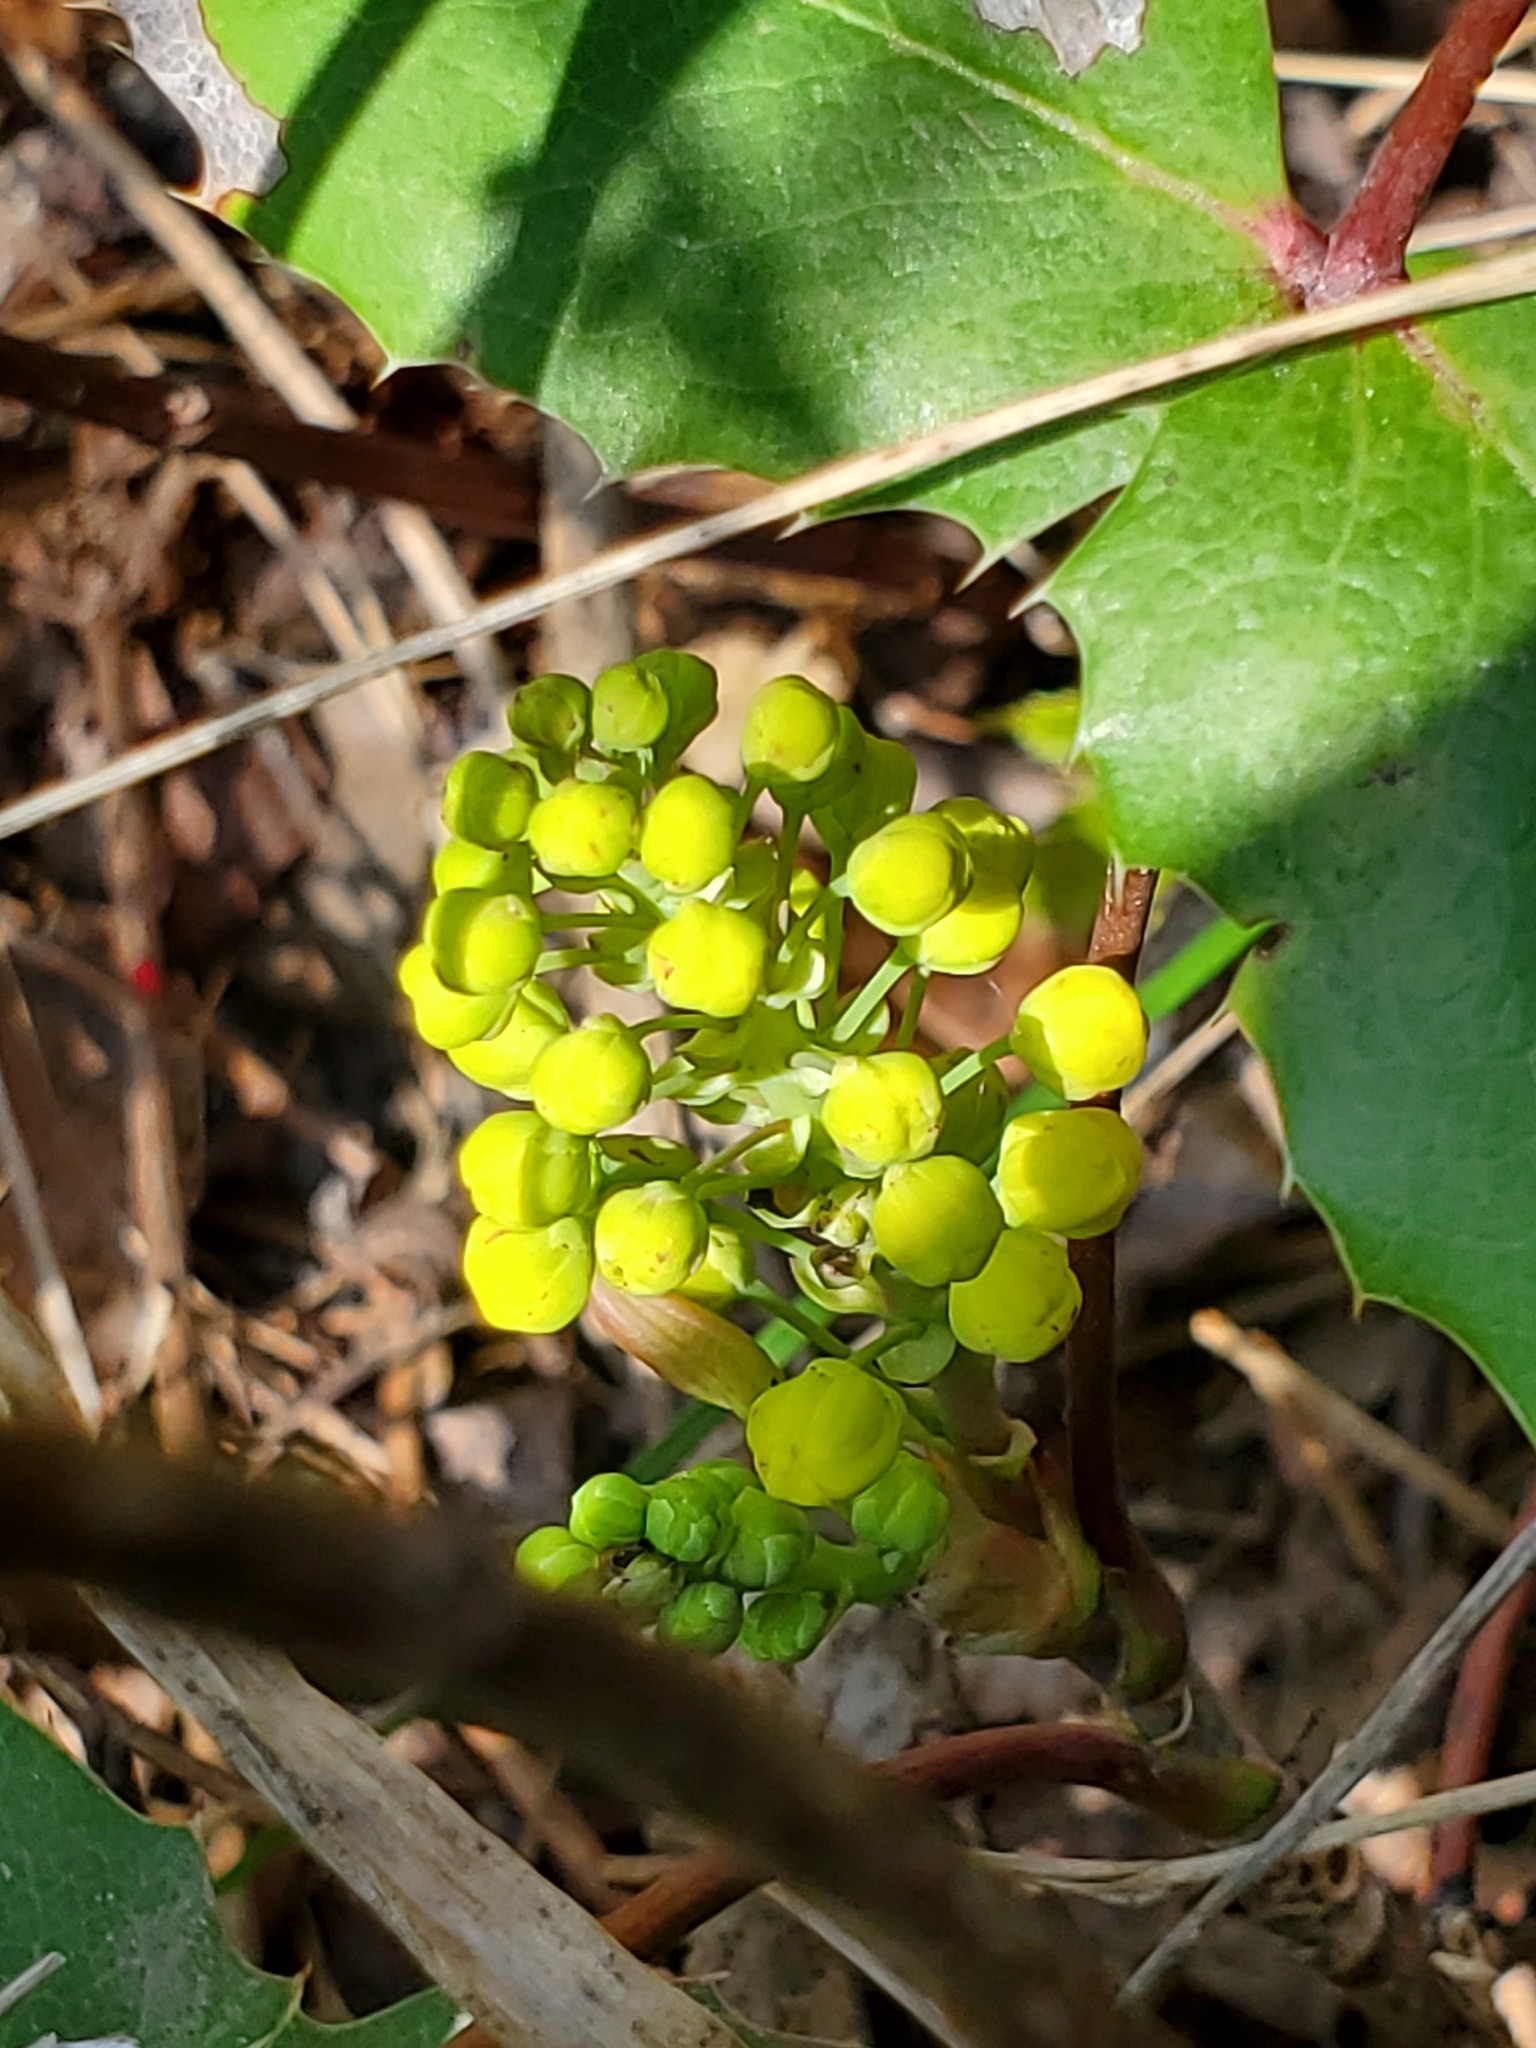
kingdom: Plantae
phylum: Tracheophyta
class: Magnoliopsida
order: Ranunculales
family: Berberidaceae
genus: Mahonia
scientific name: Mahonia repens
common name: Creeping oregon-grape
